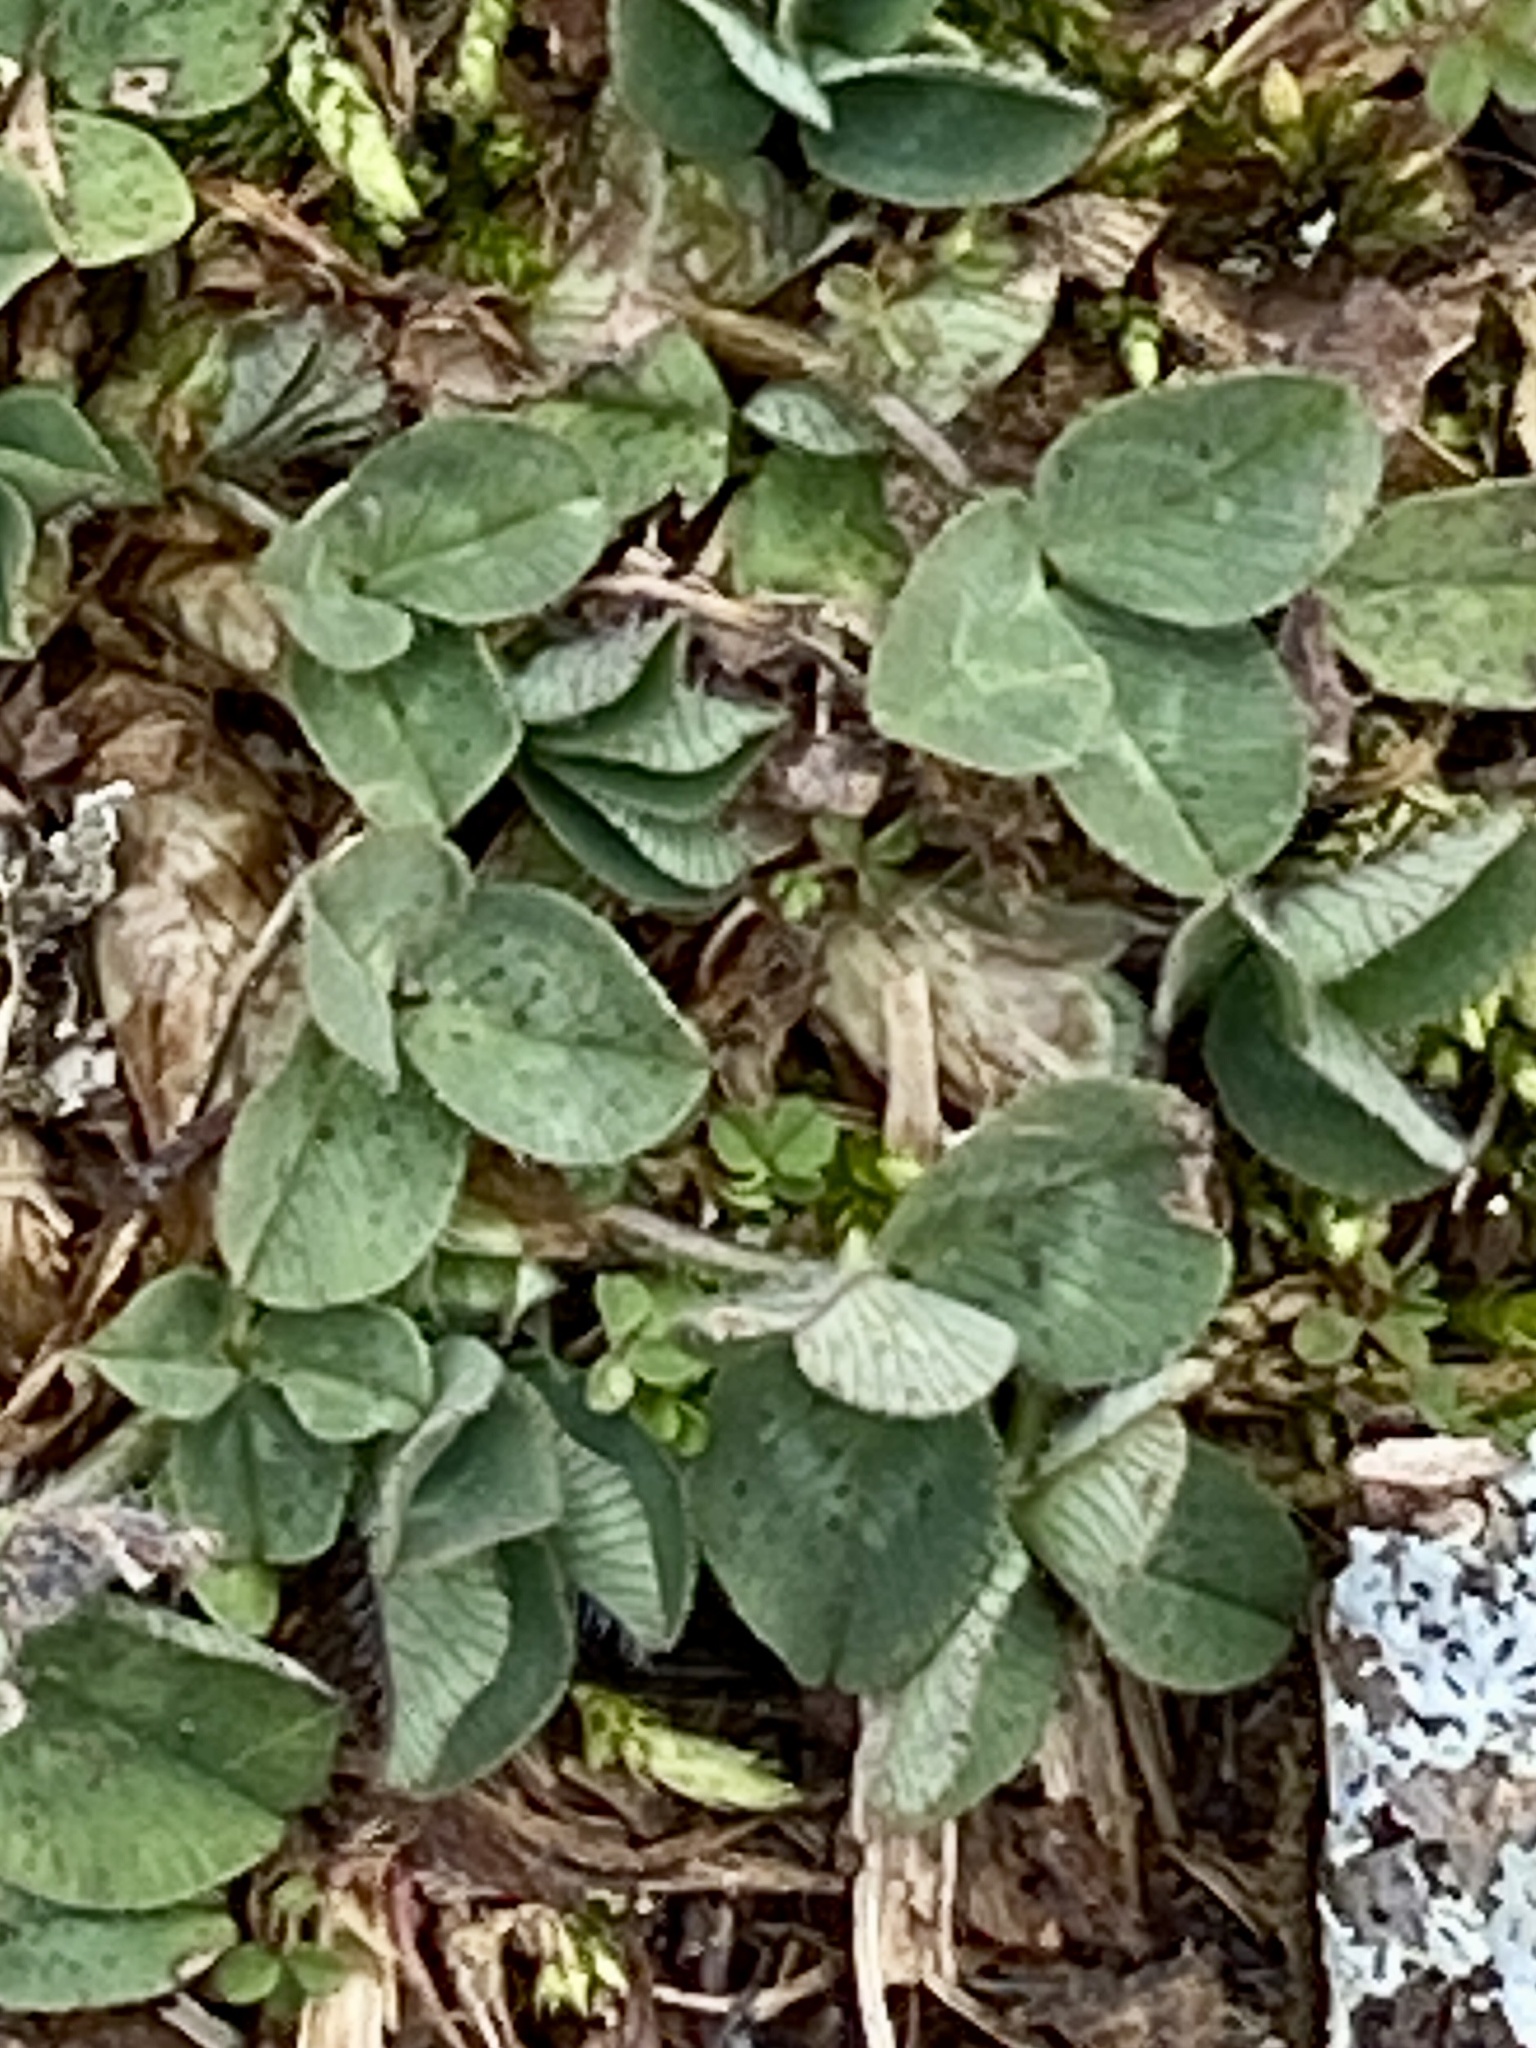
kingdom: Plantae
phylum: Tracheophyta
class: Magnoliopsida
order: Fabales
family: Fabaceae
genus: Trifolium
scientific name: Trifolium repens
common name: White clover
